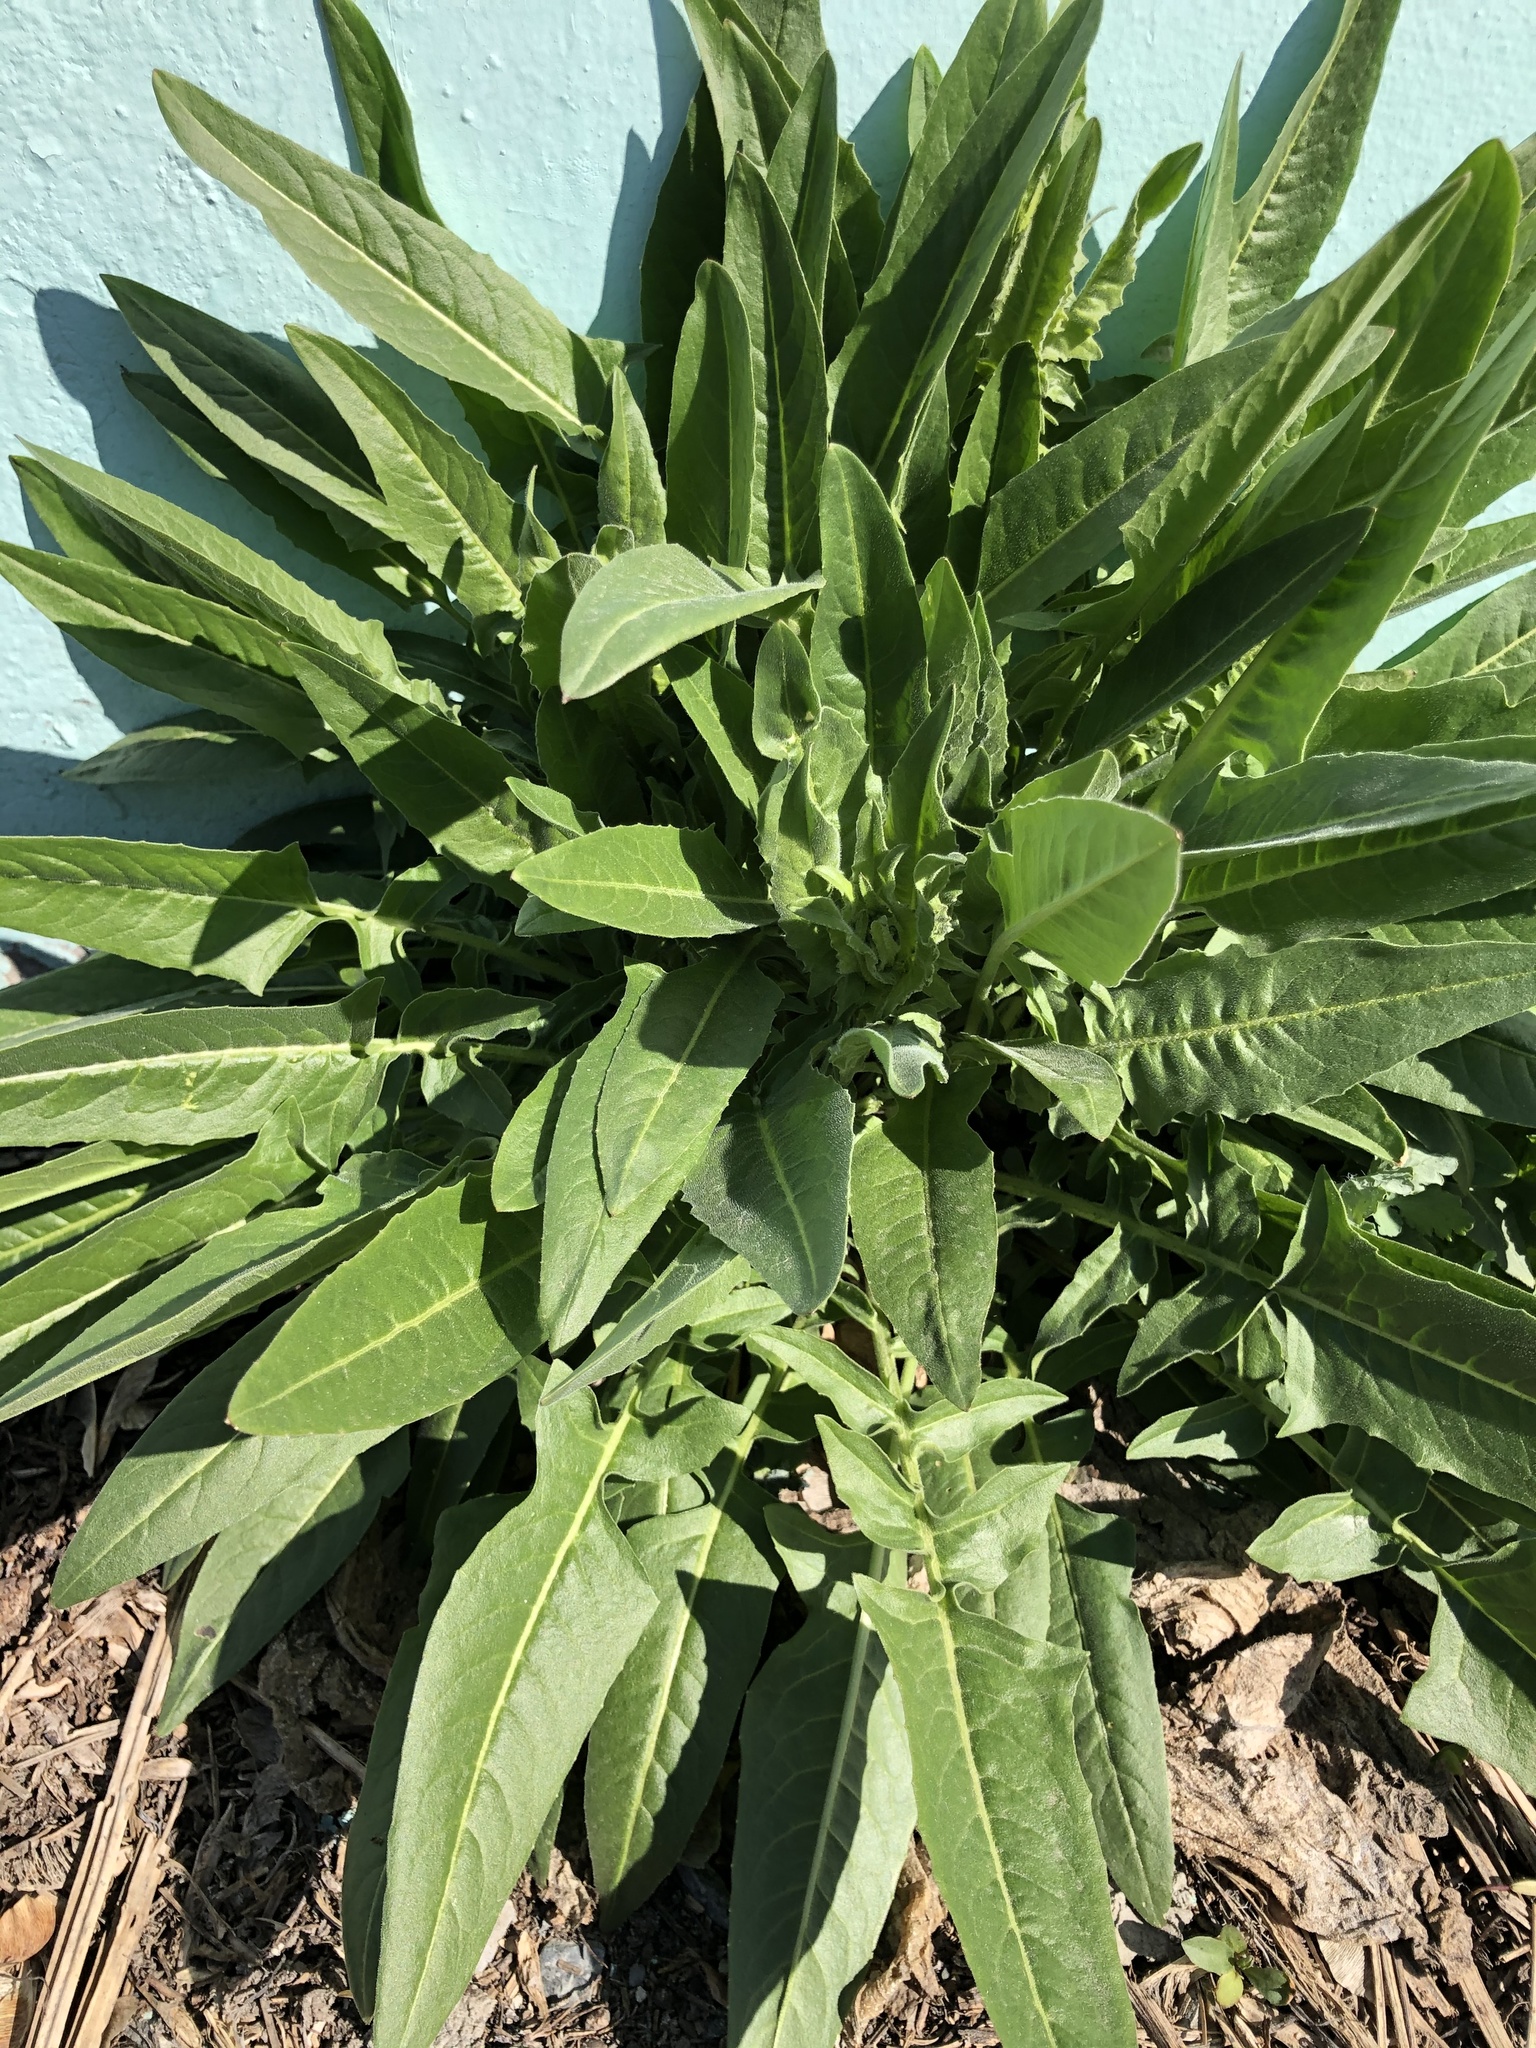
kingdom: Plantae
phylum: Tracheophyta
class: Magnoliopsida
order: Brassicales
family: Brassicaceae
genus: Bunias
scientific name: Bunias orientalis
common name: Warty-cabbage
